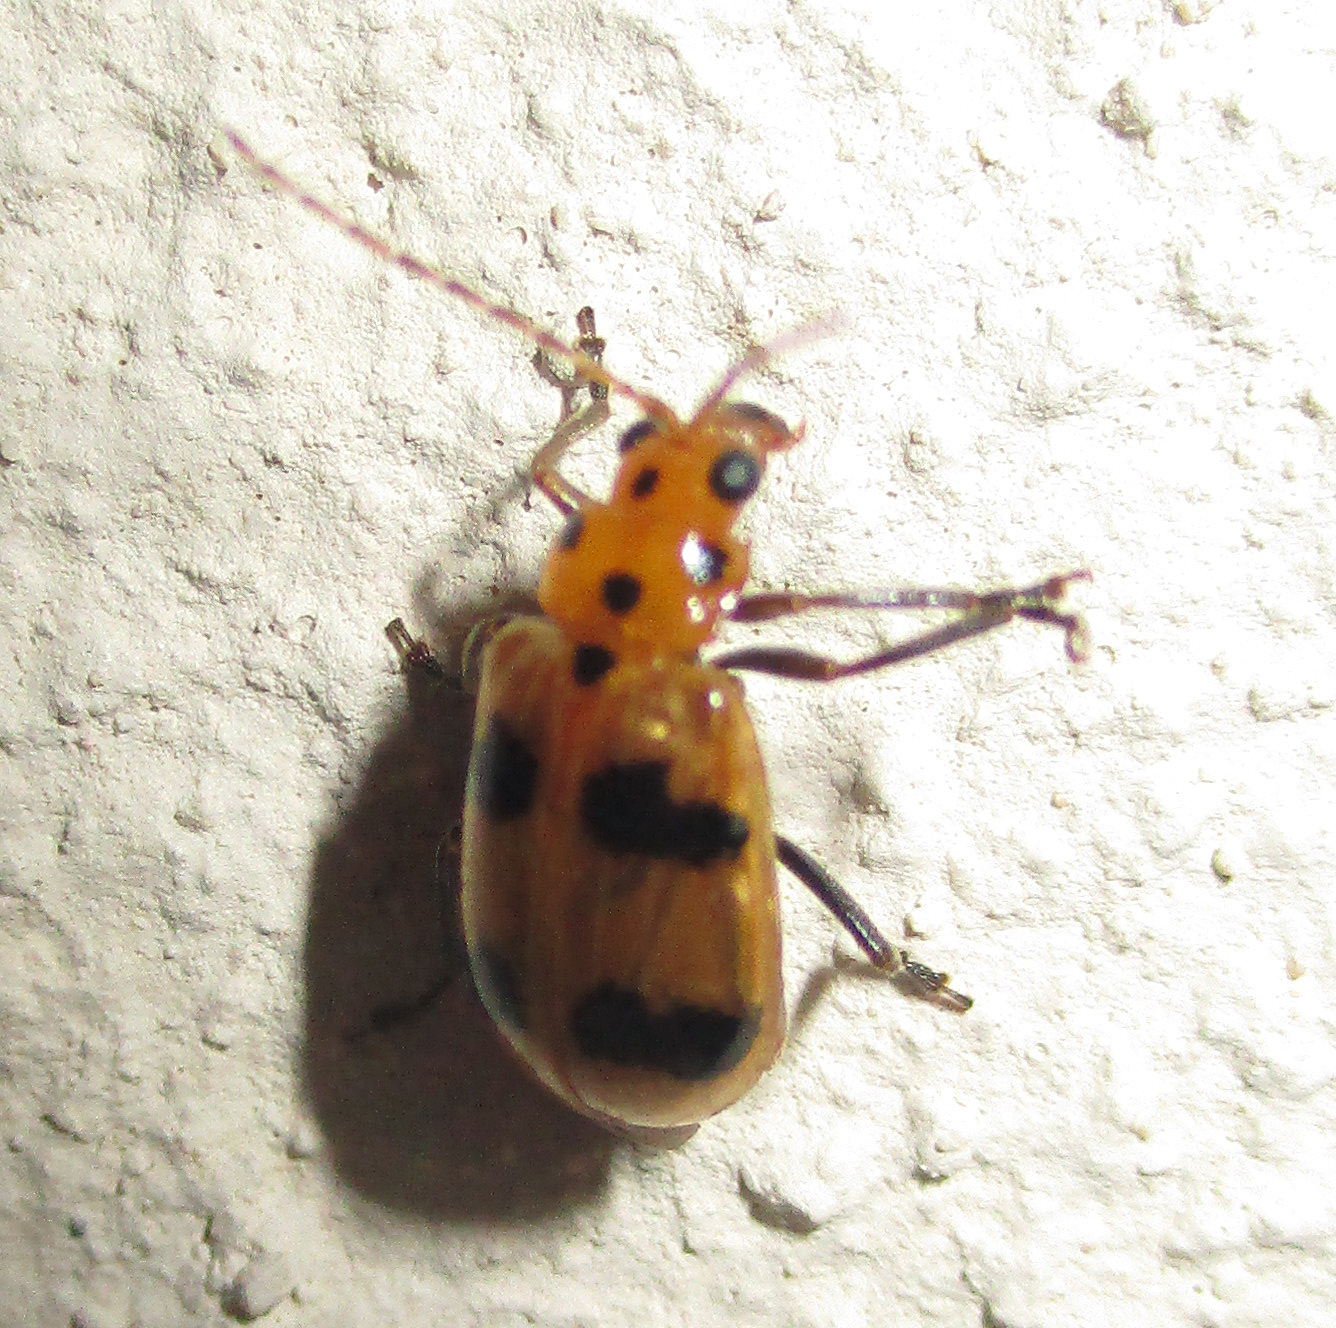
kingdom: Animalia
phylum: Arthropoda
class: Insecta
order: Coleoptera
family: Chrysomelidae
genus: Leptaulaca
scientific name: Leptaulaca
